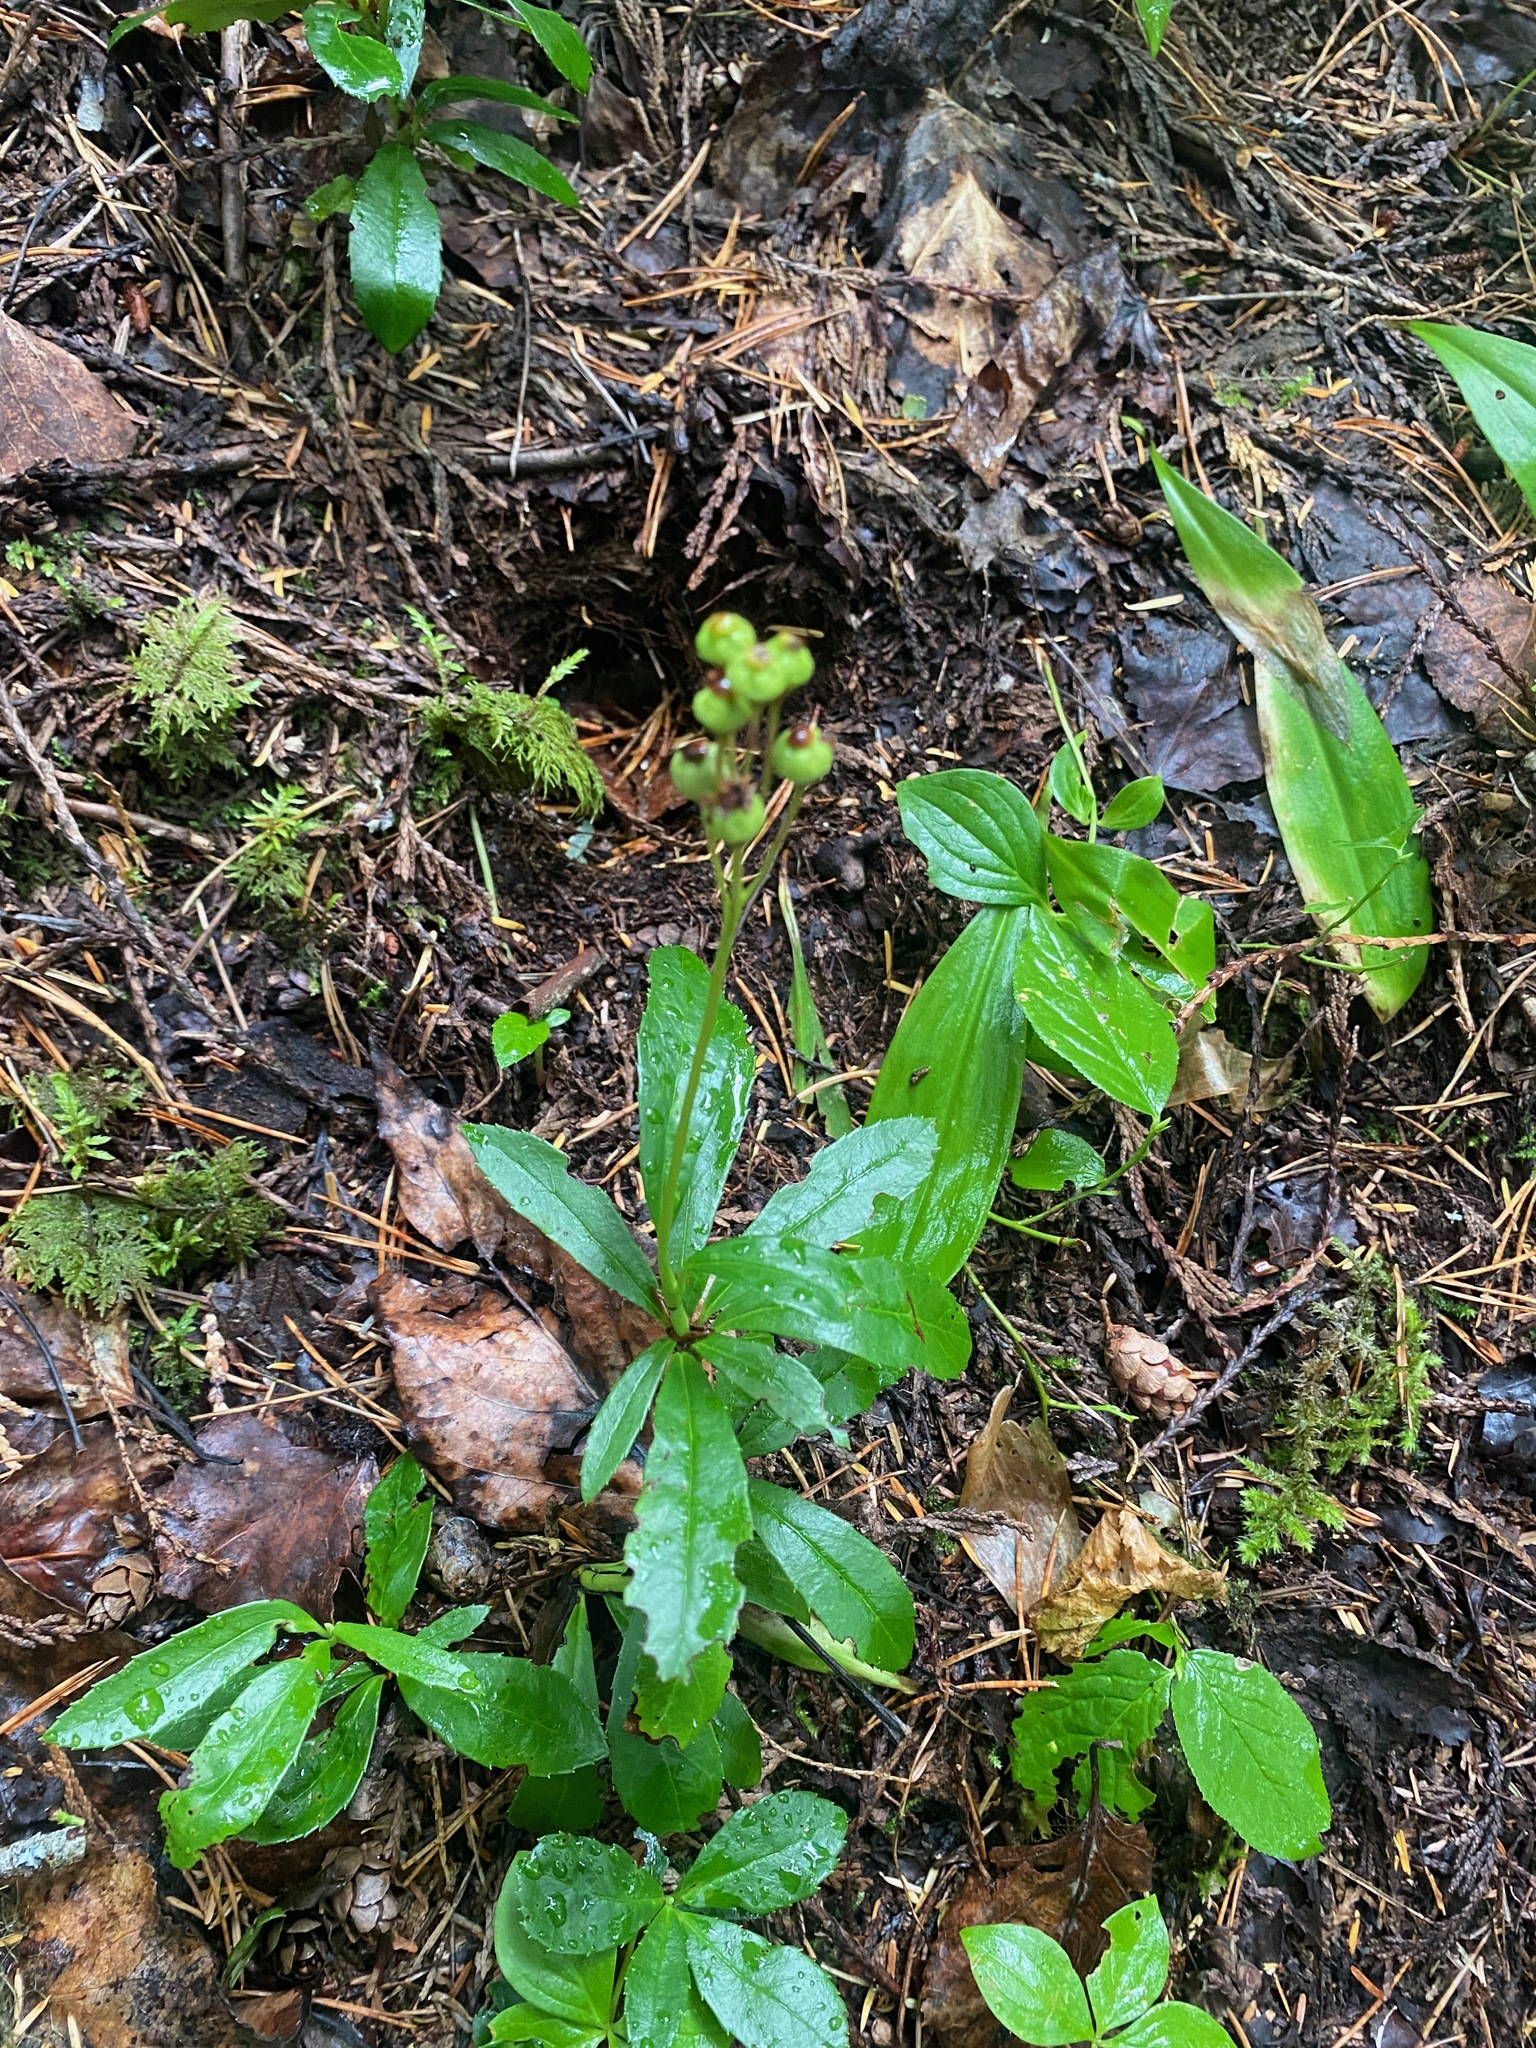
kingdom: Plantae
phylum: Tracheophyta
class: Magnoliopsida
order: Ericales
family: Ericaceae
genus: Chimaphila
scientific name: Chimaphila umbellata
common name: Pipsissewa
